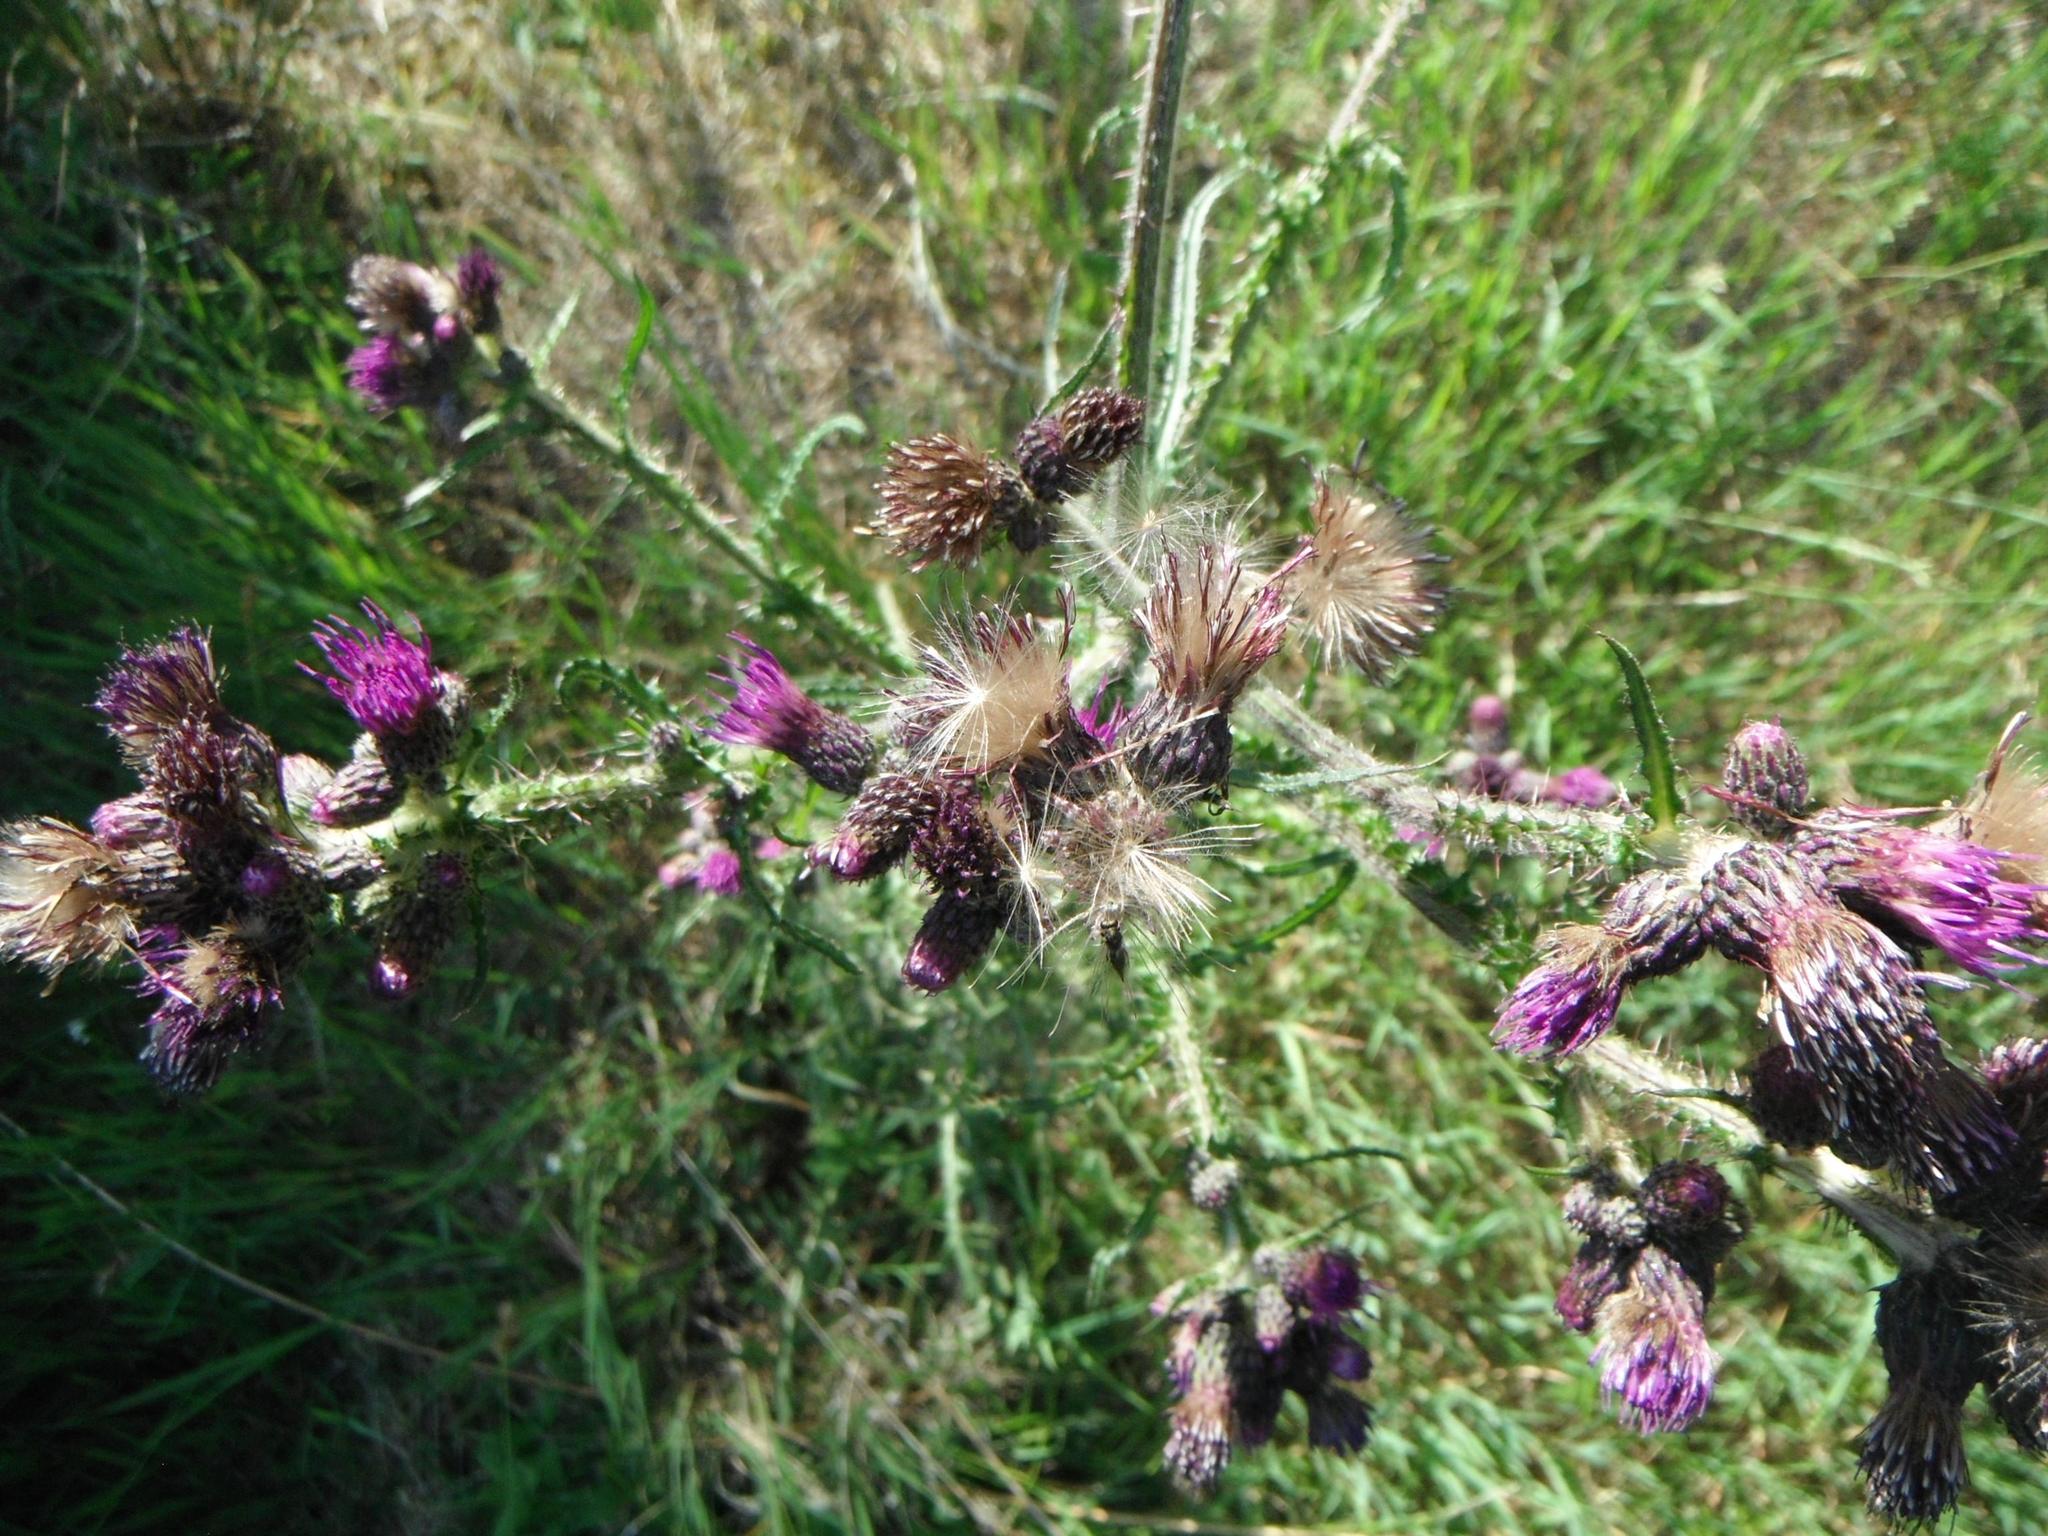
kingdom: Plantae
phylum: Tracheophyta
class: Magnoliopsida
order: Asterales
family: Asteraceae
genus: Cirsium
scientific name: Cirsium palustre
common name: Marsh thistle
